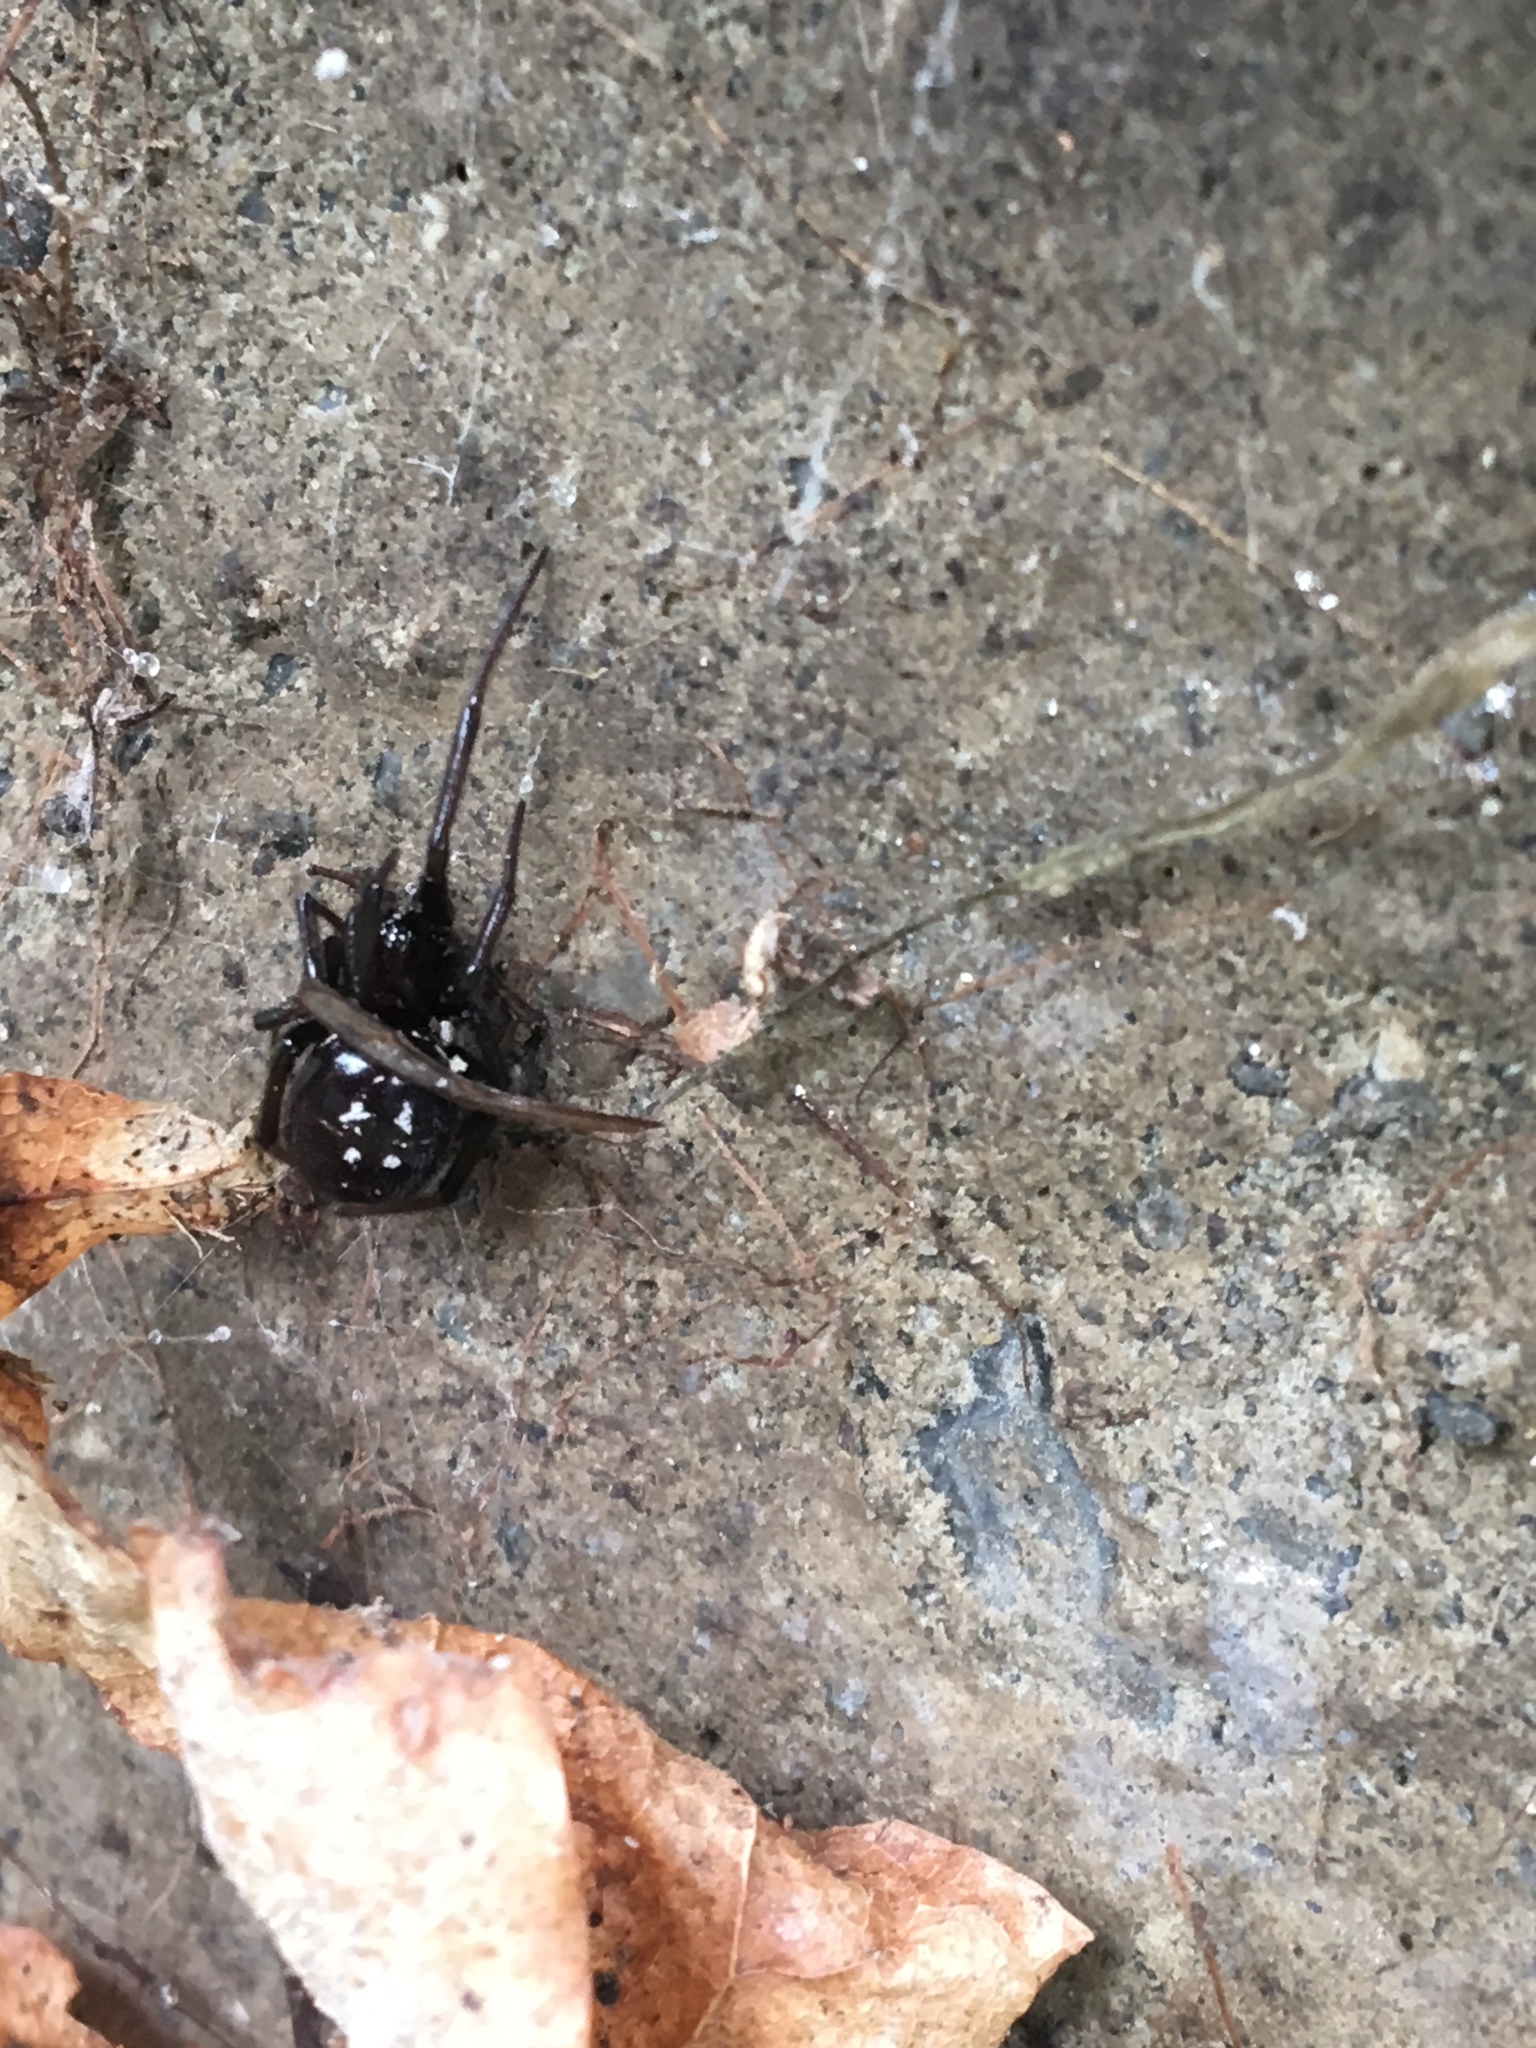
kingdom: Animalia
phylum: Arthropoda
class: Arachnida
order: Araneae
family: Theridiidae
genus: Steatoda
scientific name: Steatoda capensis
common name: Cobweb weaver
